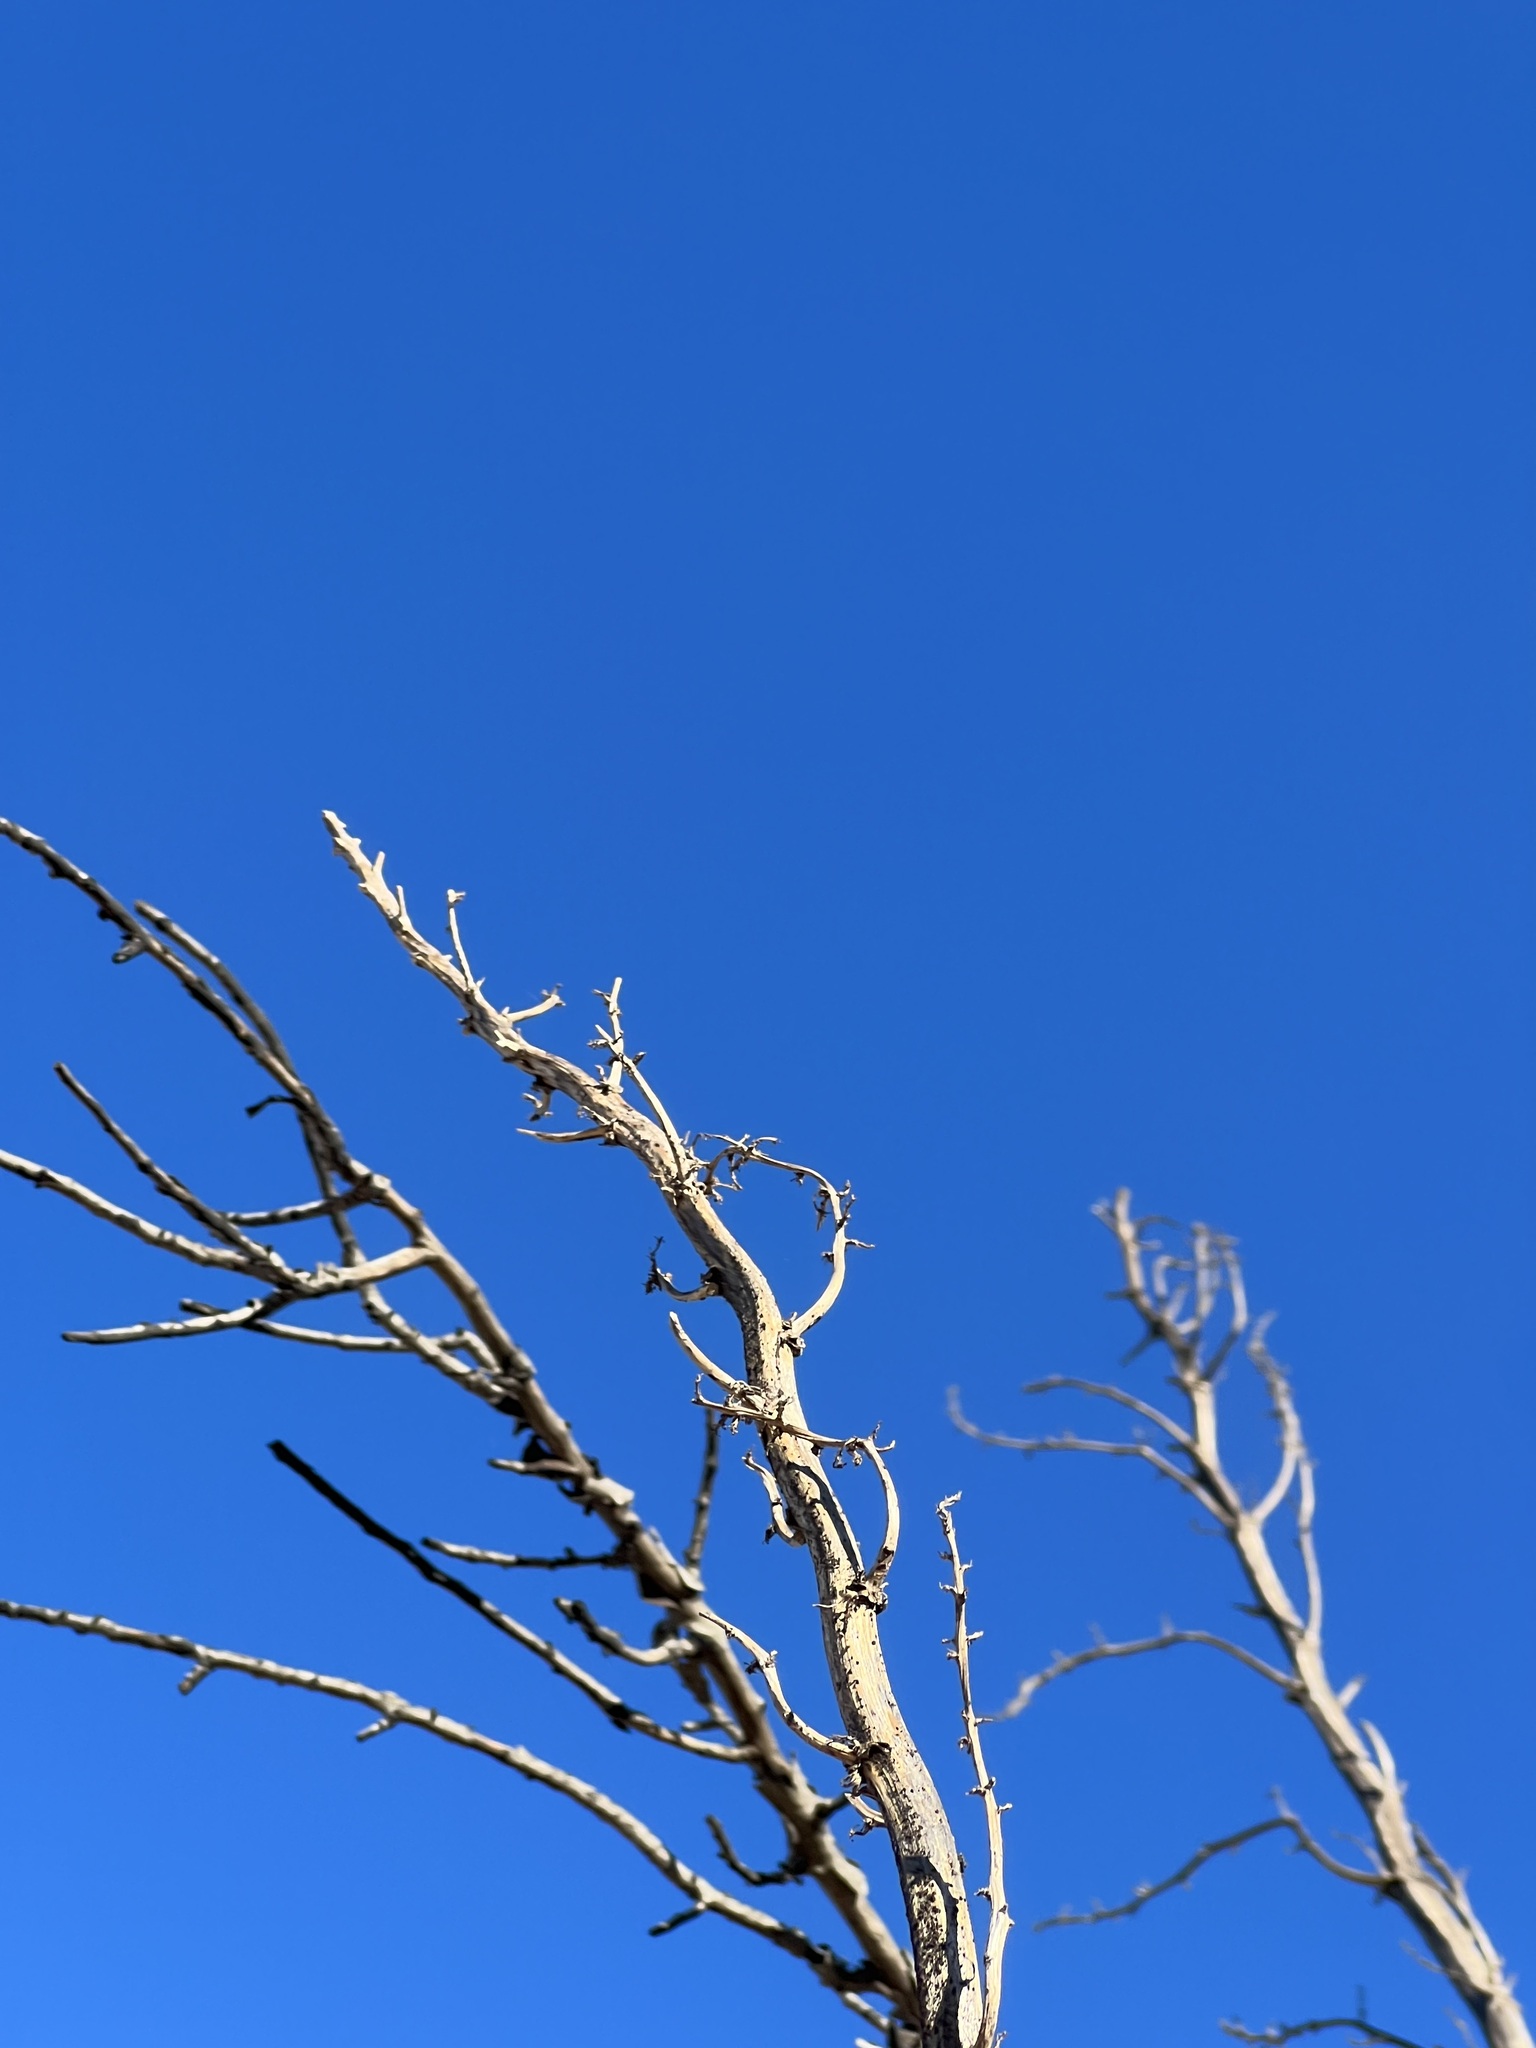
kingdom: Plantae
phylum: Tracheophyta
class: Liliopsida
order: Asparagales
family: Asparagaceae
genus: Nolina
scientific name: Nolina cismontana
